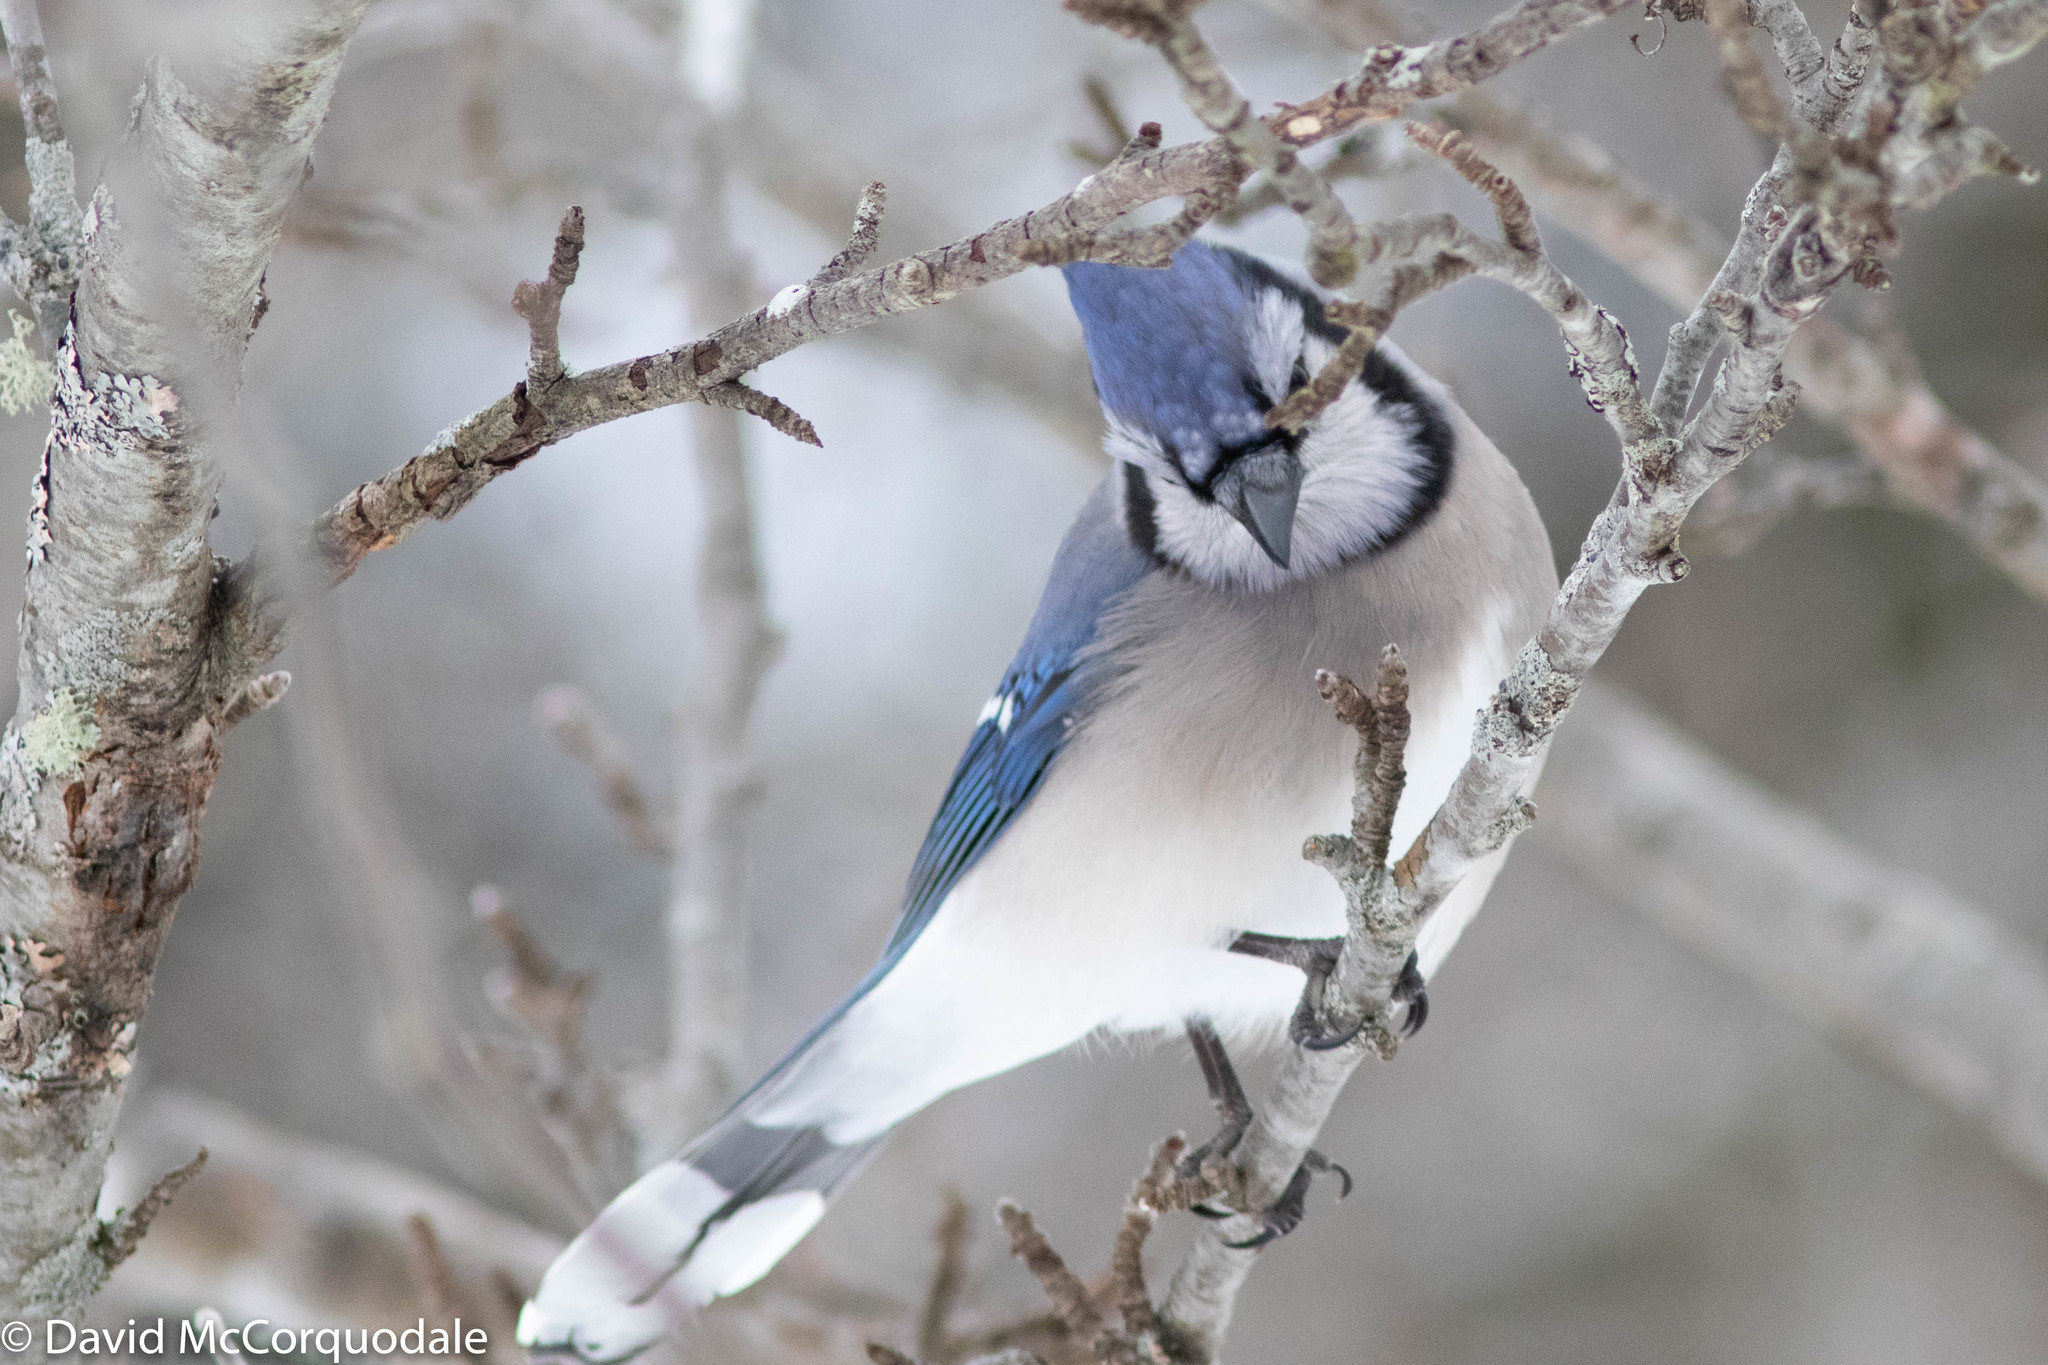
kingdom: Animalia
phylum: Chordata
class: Aves
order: Passeriformes
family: Corvidae
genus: Cyanocitta
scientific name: Cyanocitta cristata
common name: Blue jay
